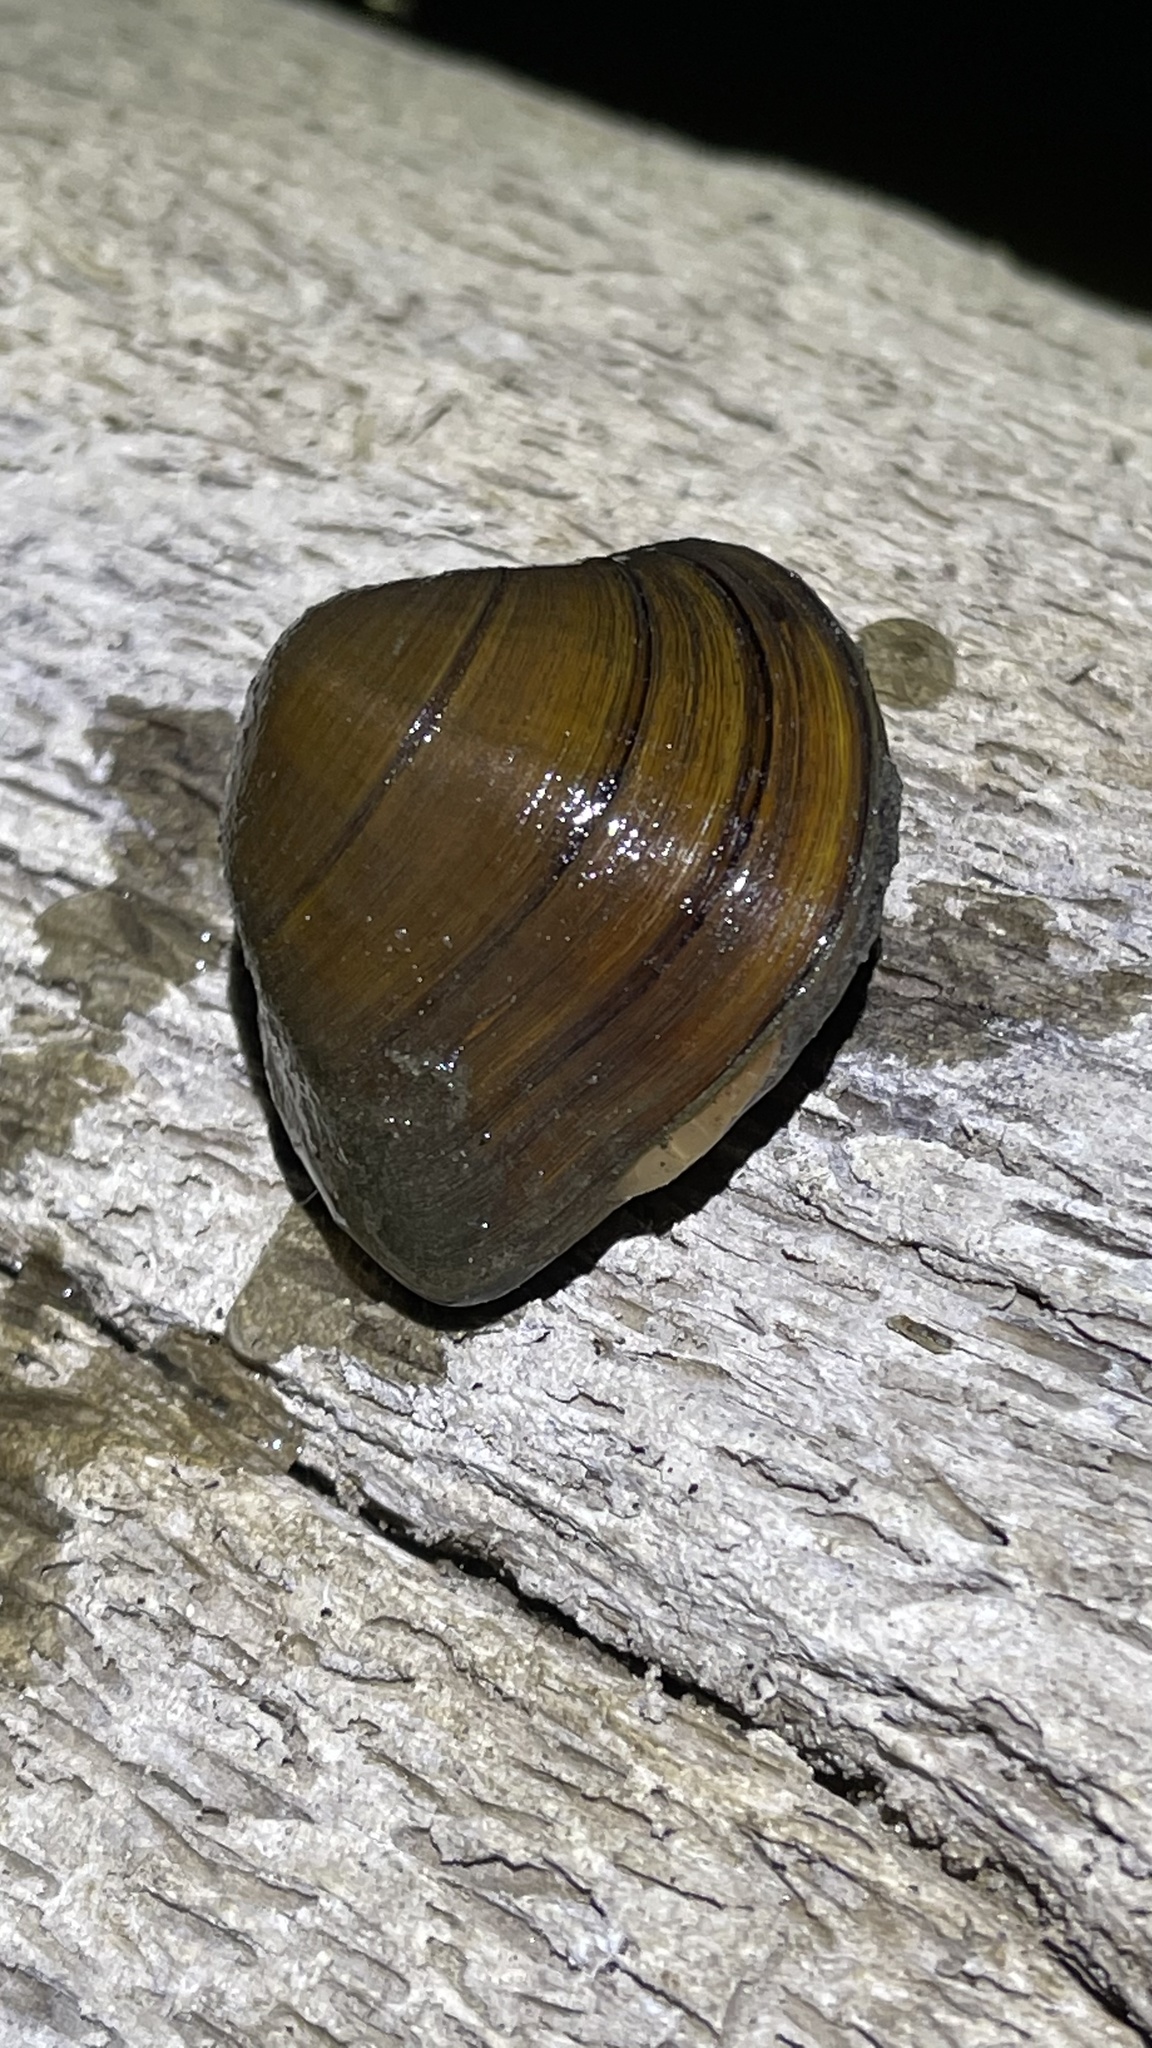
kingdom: Animalia
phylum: Mollusca
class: Bivalvia
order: Unionida
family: Unionidae
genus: Fusconaia
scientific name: Fusconaia flava
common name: Wabash pigtoe
